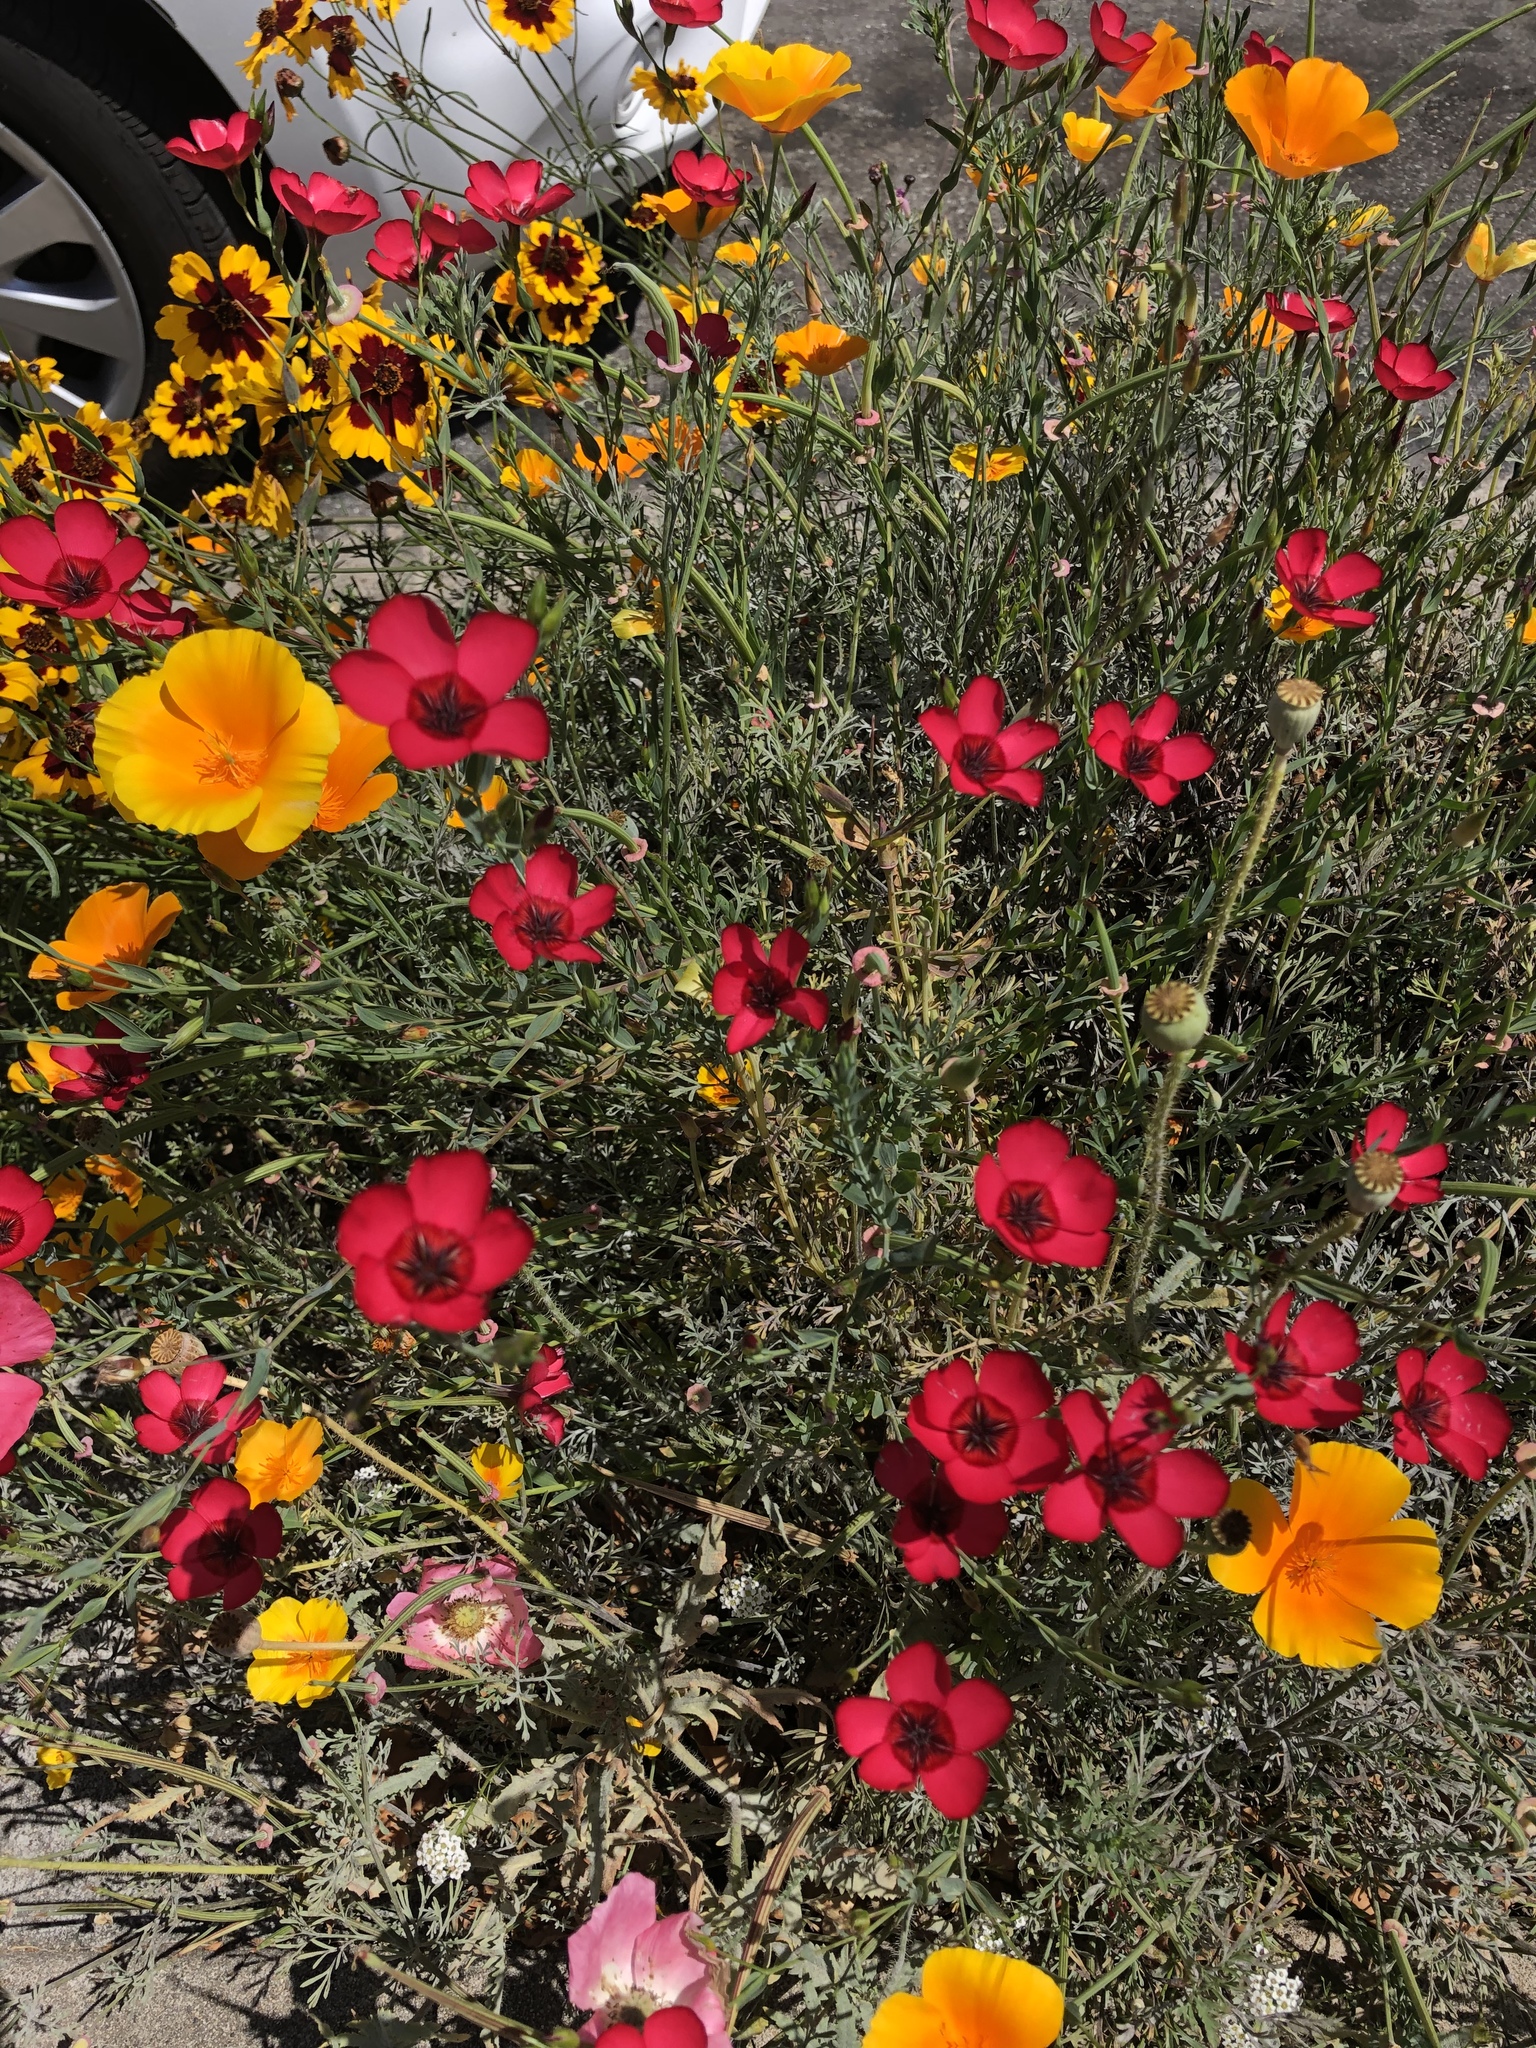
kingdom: Plantae
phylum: Tracheophyta
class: Magnoliopsida
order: Malpighiales
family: Linaceae
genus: Linum
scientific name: Linum grandiflorum
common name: Crimson flax
